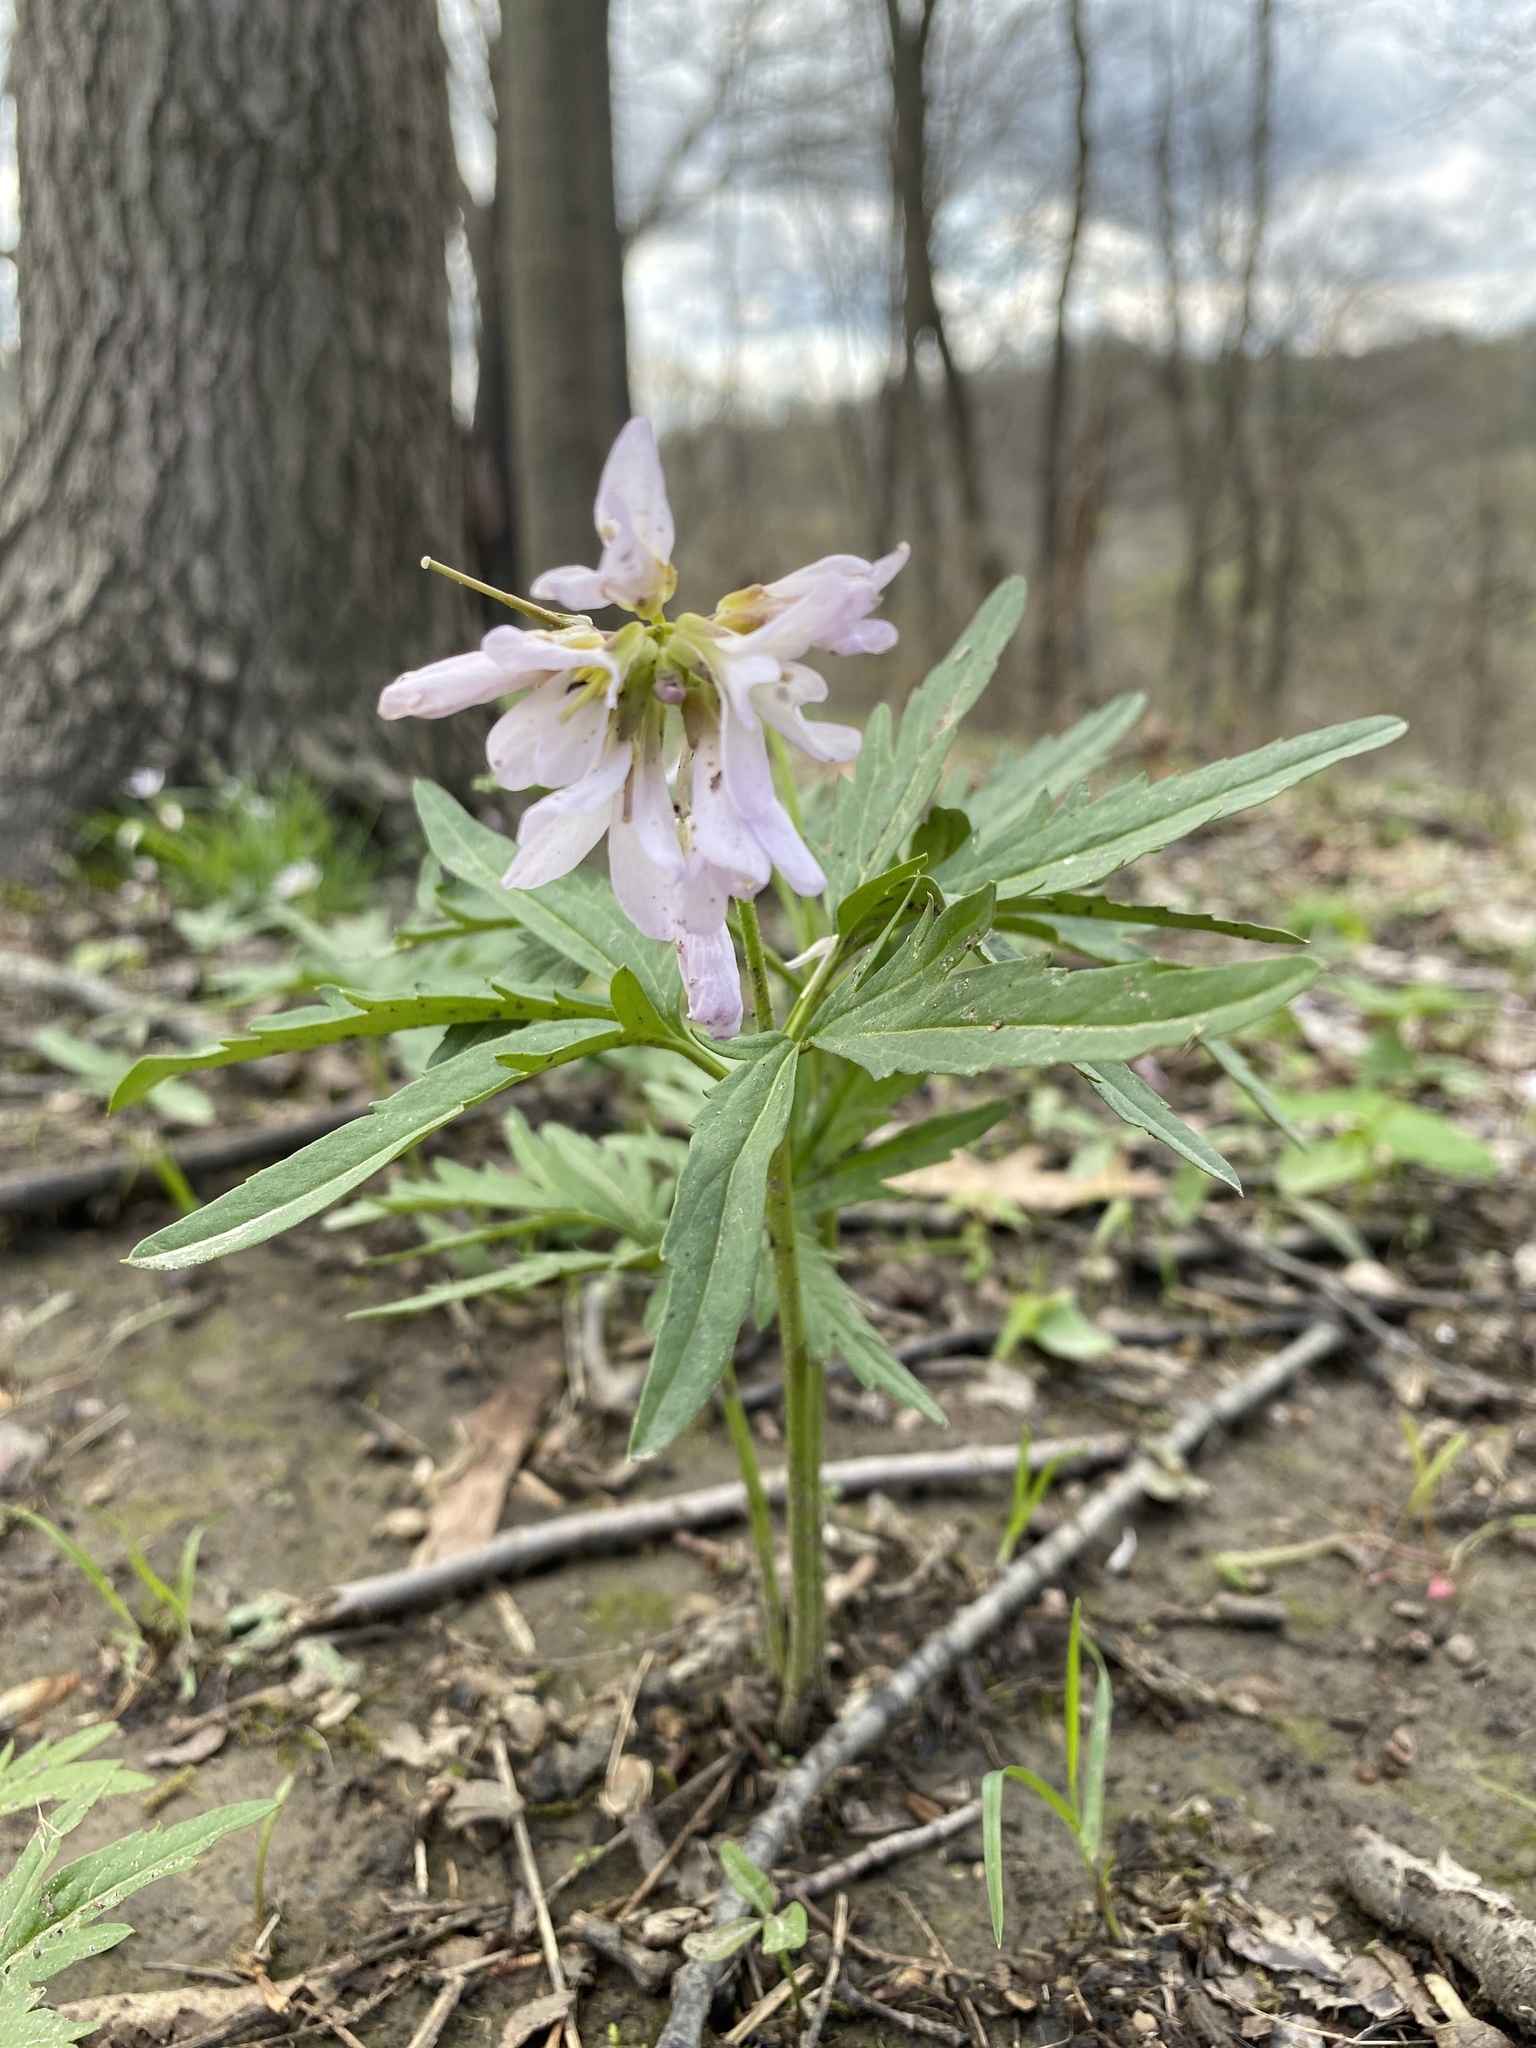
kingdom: Plantae
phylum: Tracheophyta
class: Magnoliopsida
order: Brassicales
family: Brassicaceae
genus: Cardamine
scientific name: Cardamine concatenata
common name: Cut-leaf toothcup
